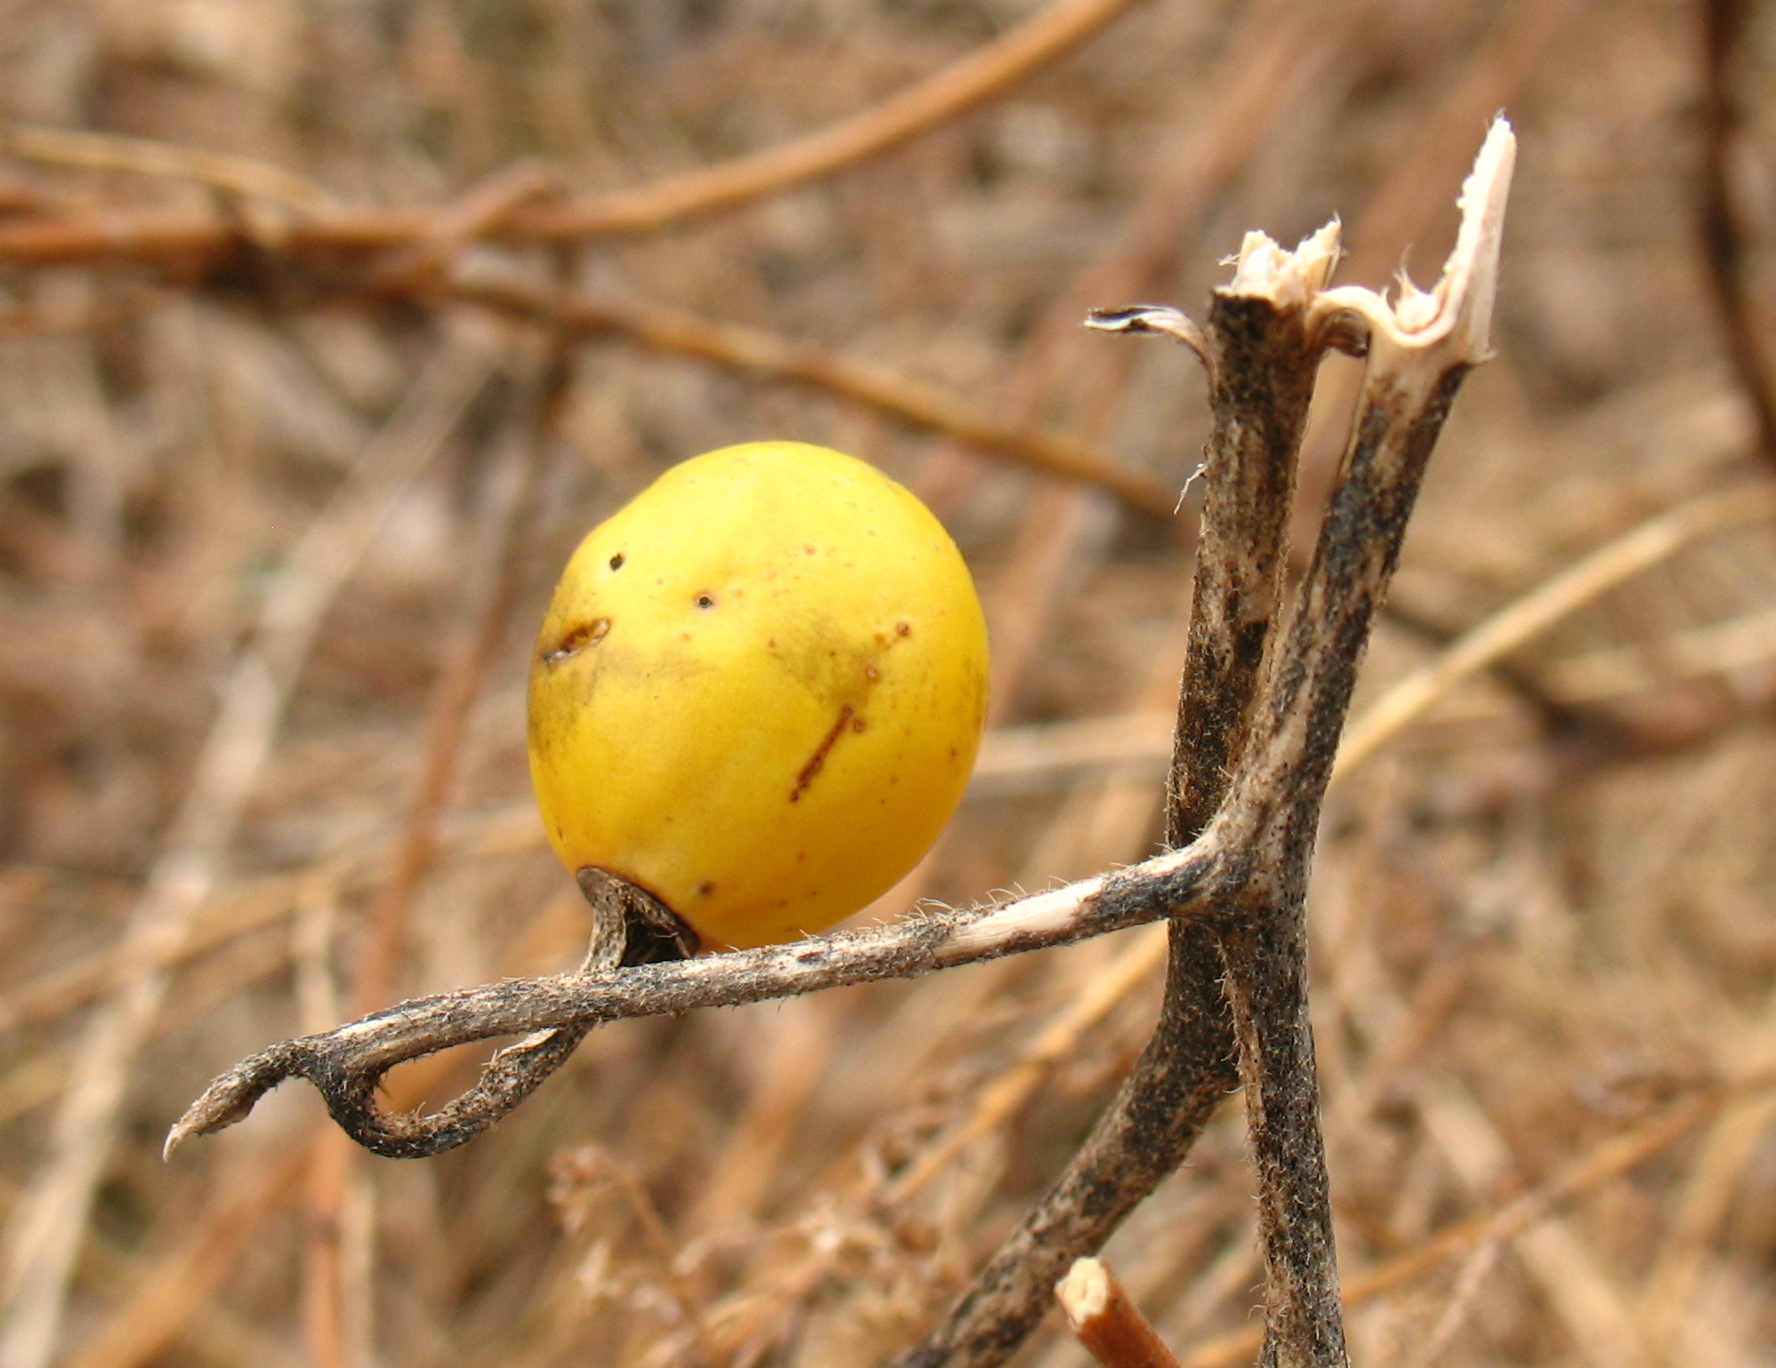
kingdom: Plantae
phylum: Tracheophyta
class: Magnoliopsida
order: Solanales
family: Solanaceae
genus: Solanum
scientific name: Solanum carolinense
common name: Horse-nettle
